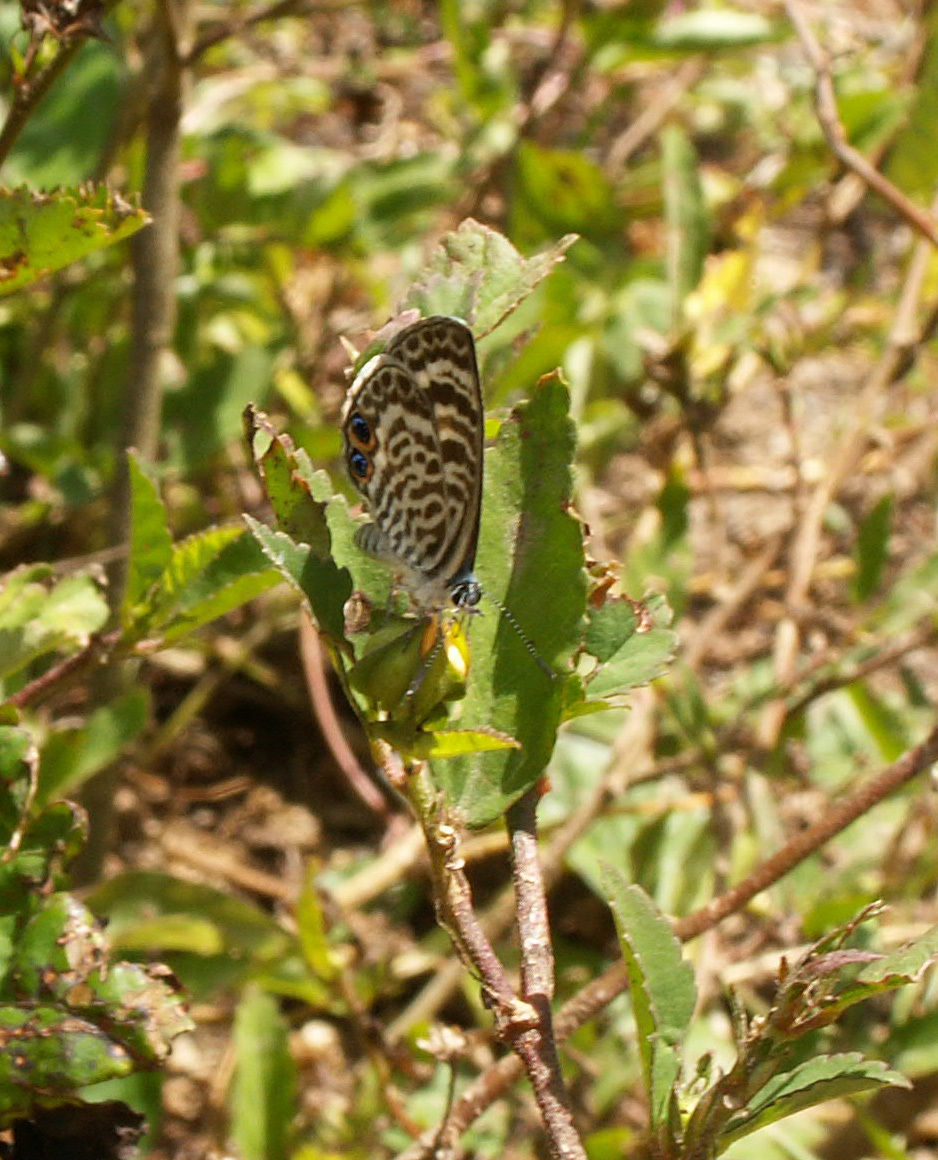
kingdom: Animalia
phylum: Arthropoda
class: Insecta
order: Lepidoptera
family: Lycaenidae
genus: Leptotes
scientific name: Leptotes cassius
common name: Cassius blue
